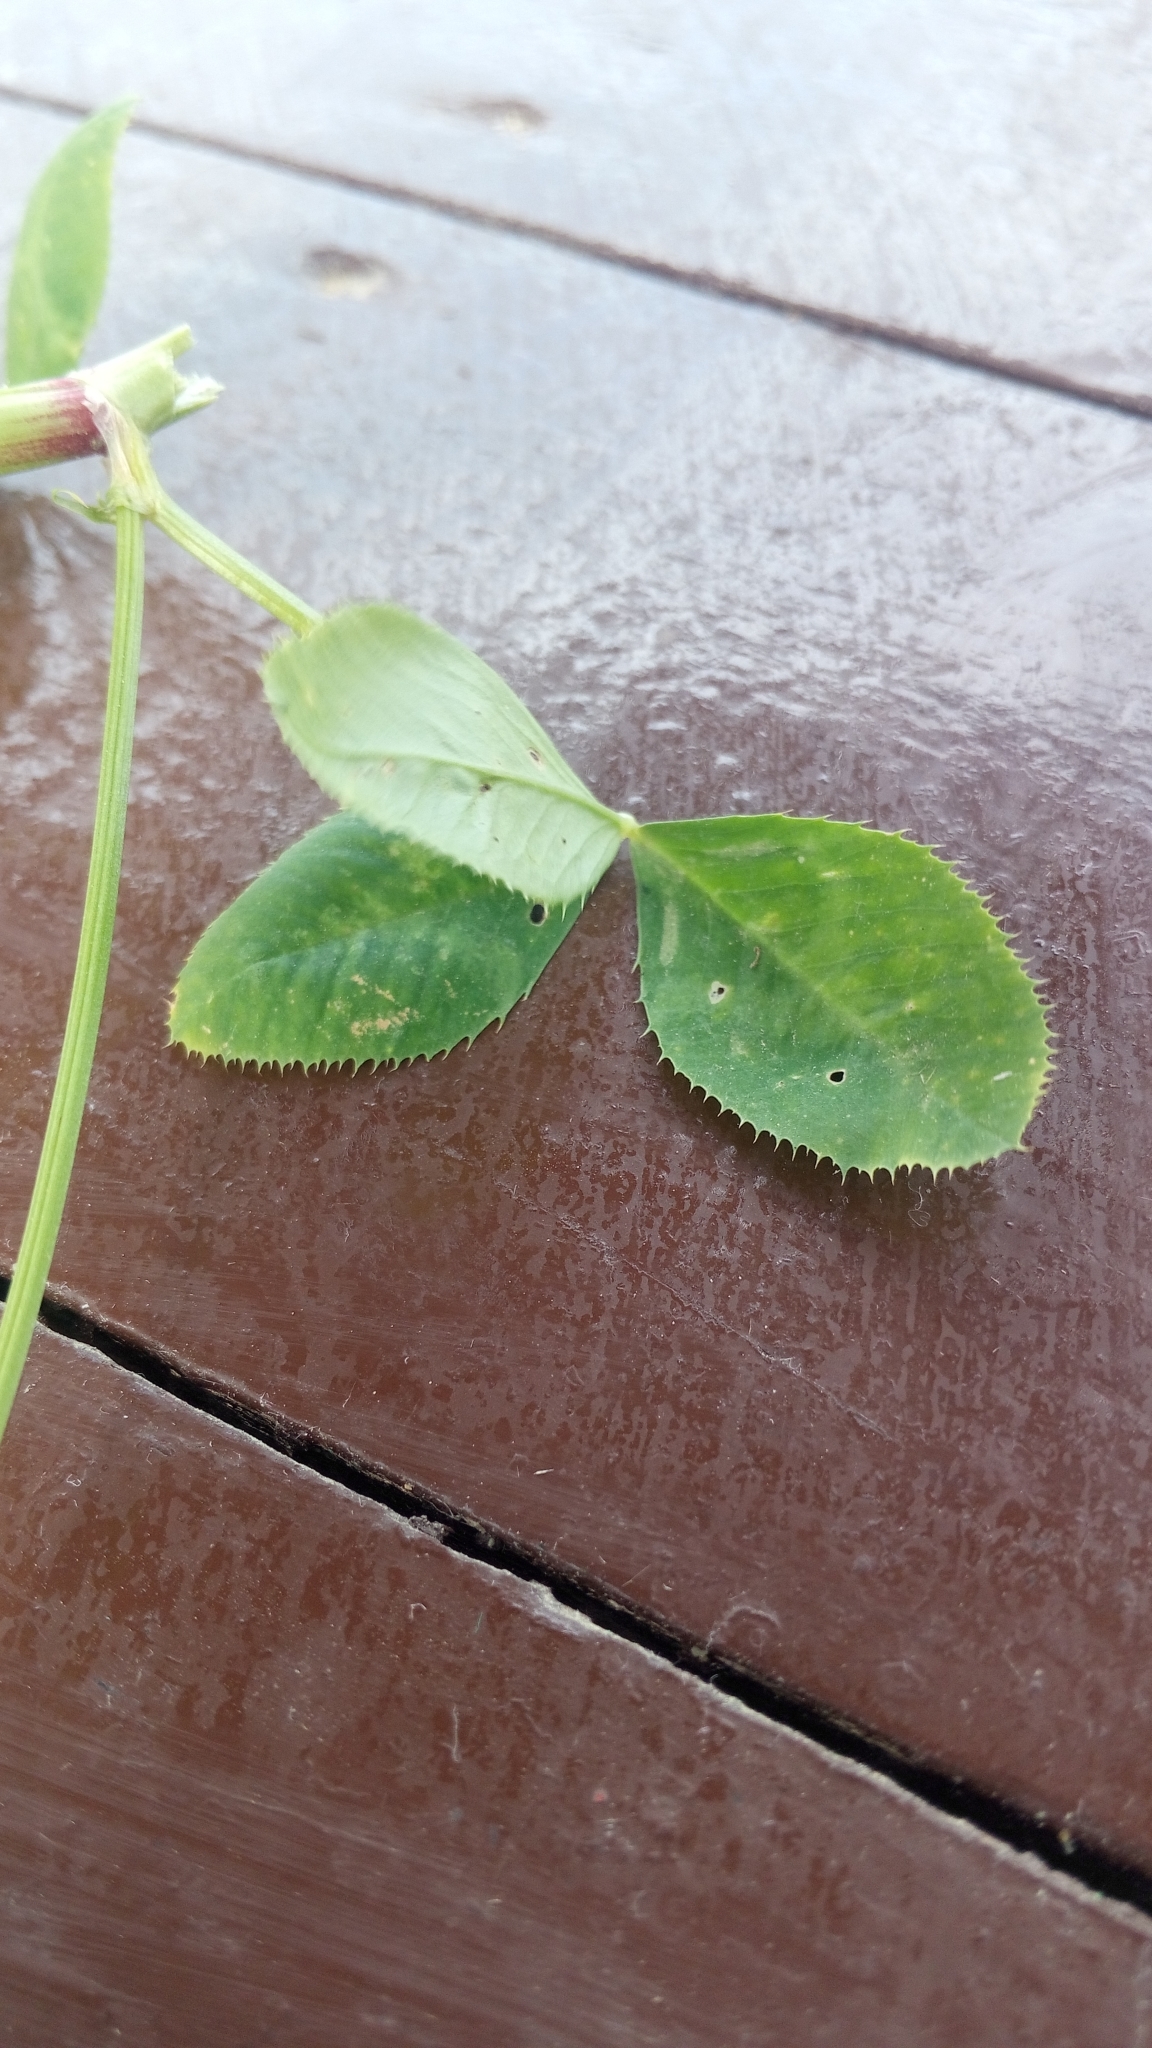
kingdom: Plantae
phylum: Tracheophyta
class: Magnoliopsida
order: Fabales
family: Fabaceae
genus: Trifolium
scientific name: Trifolium nigrescens
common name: Small white clover
